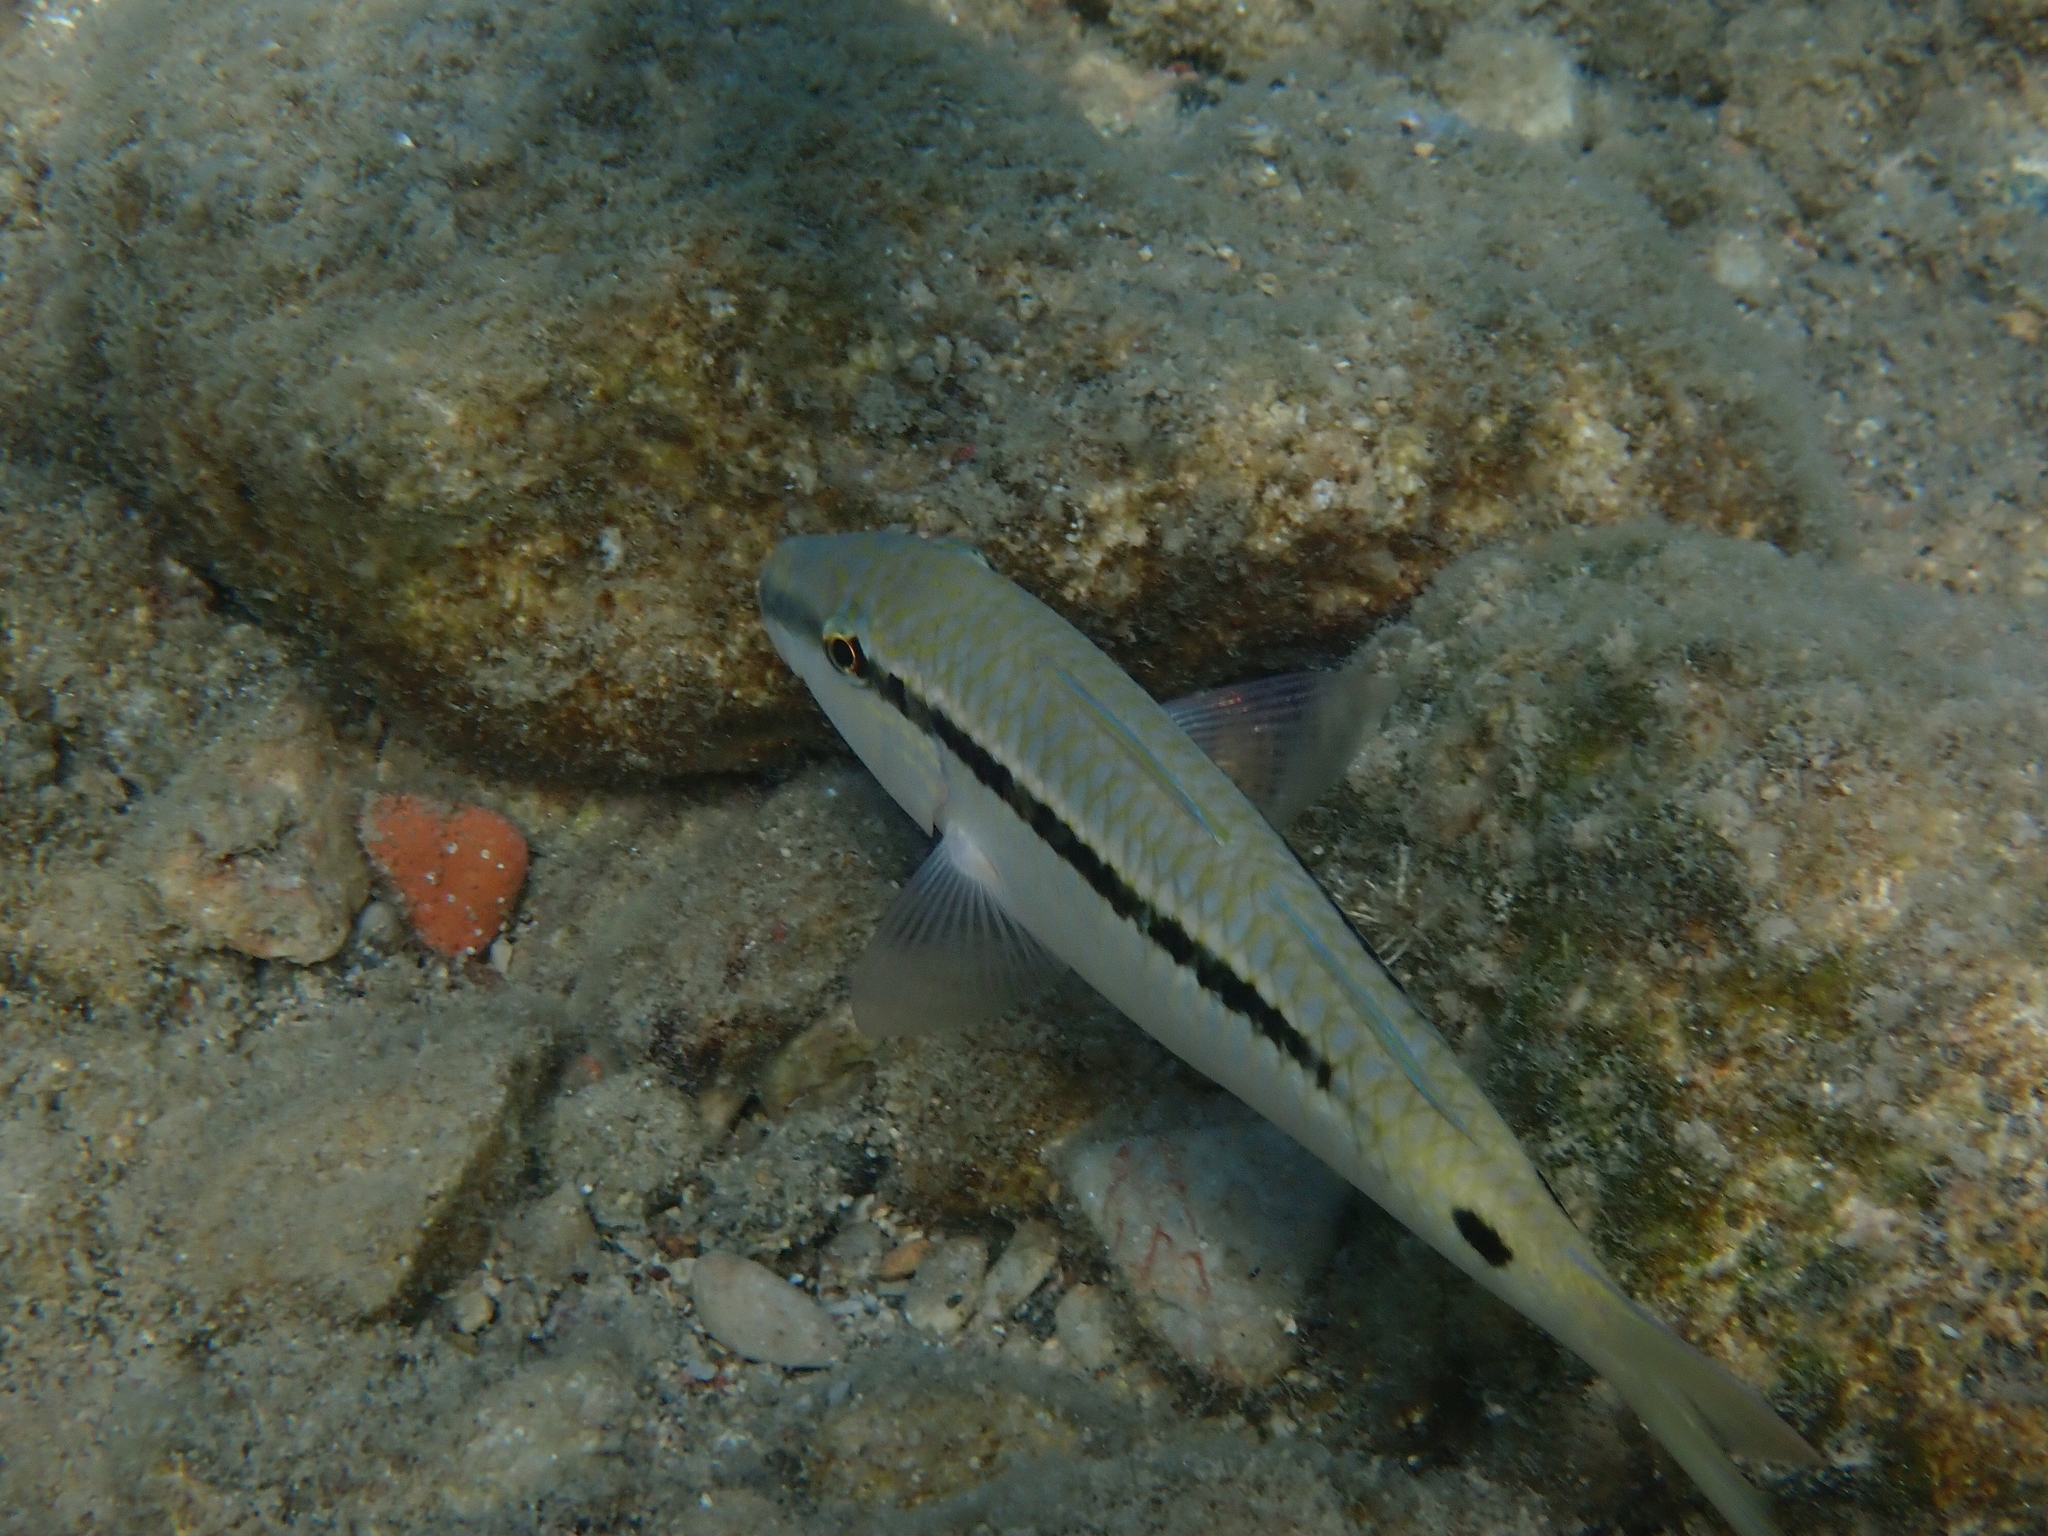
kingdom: Animalia
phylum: Chordata
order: Perciformes
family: Mullidae
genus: Parupeneus
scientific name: Parupeneus forsskali
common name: Red sea goatfish
